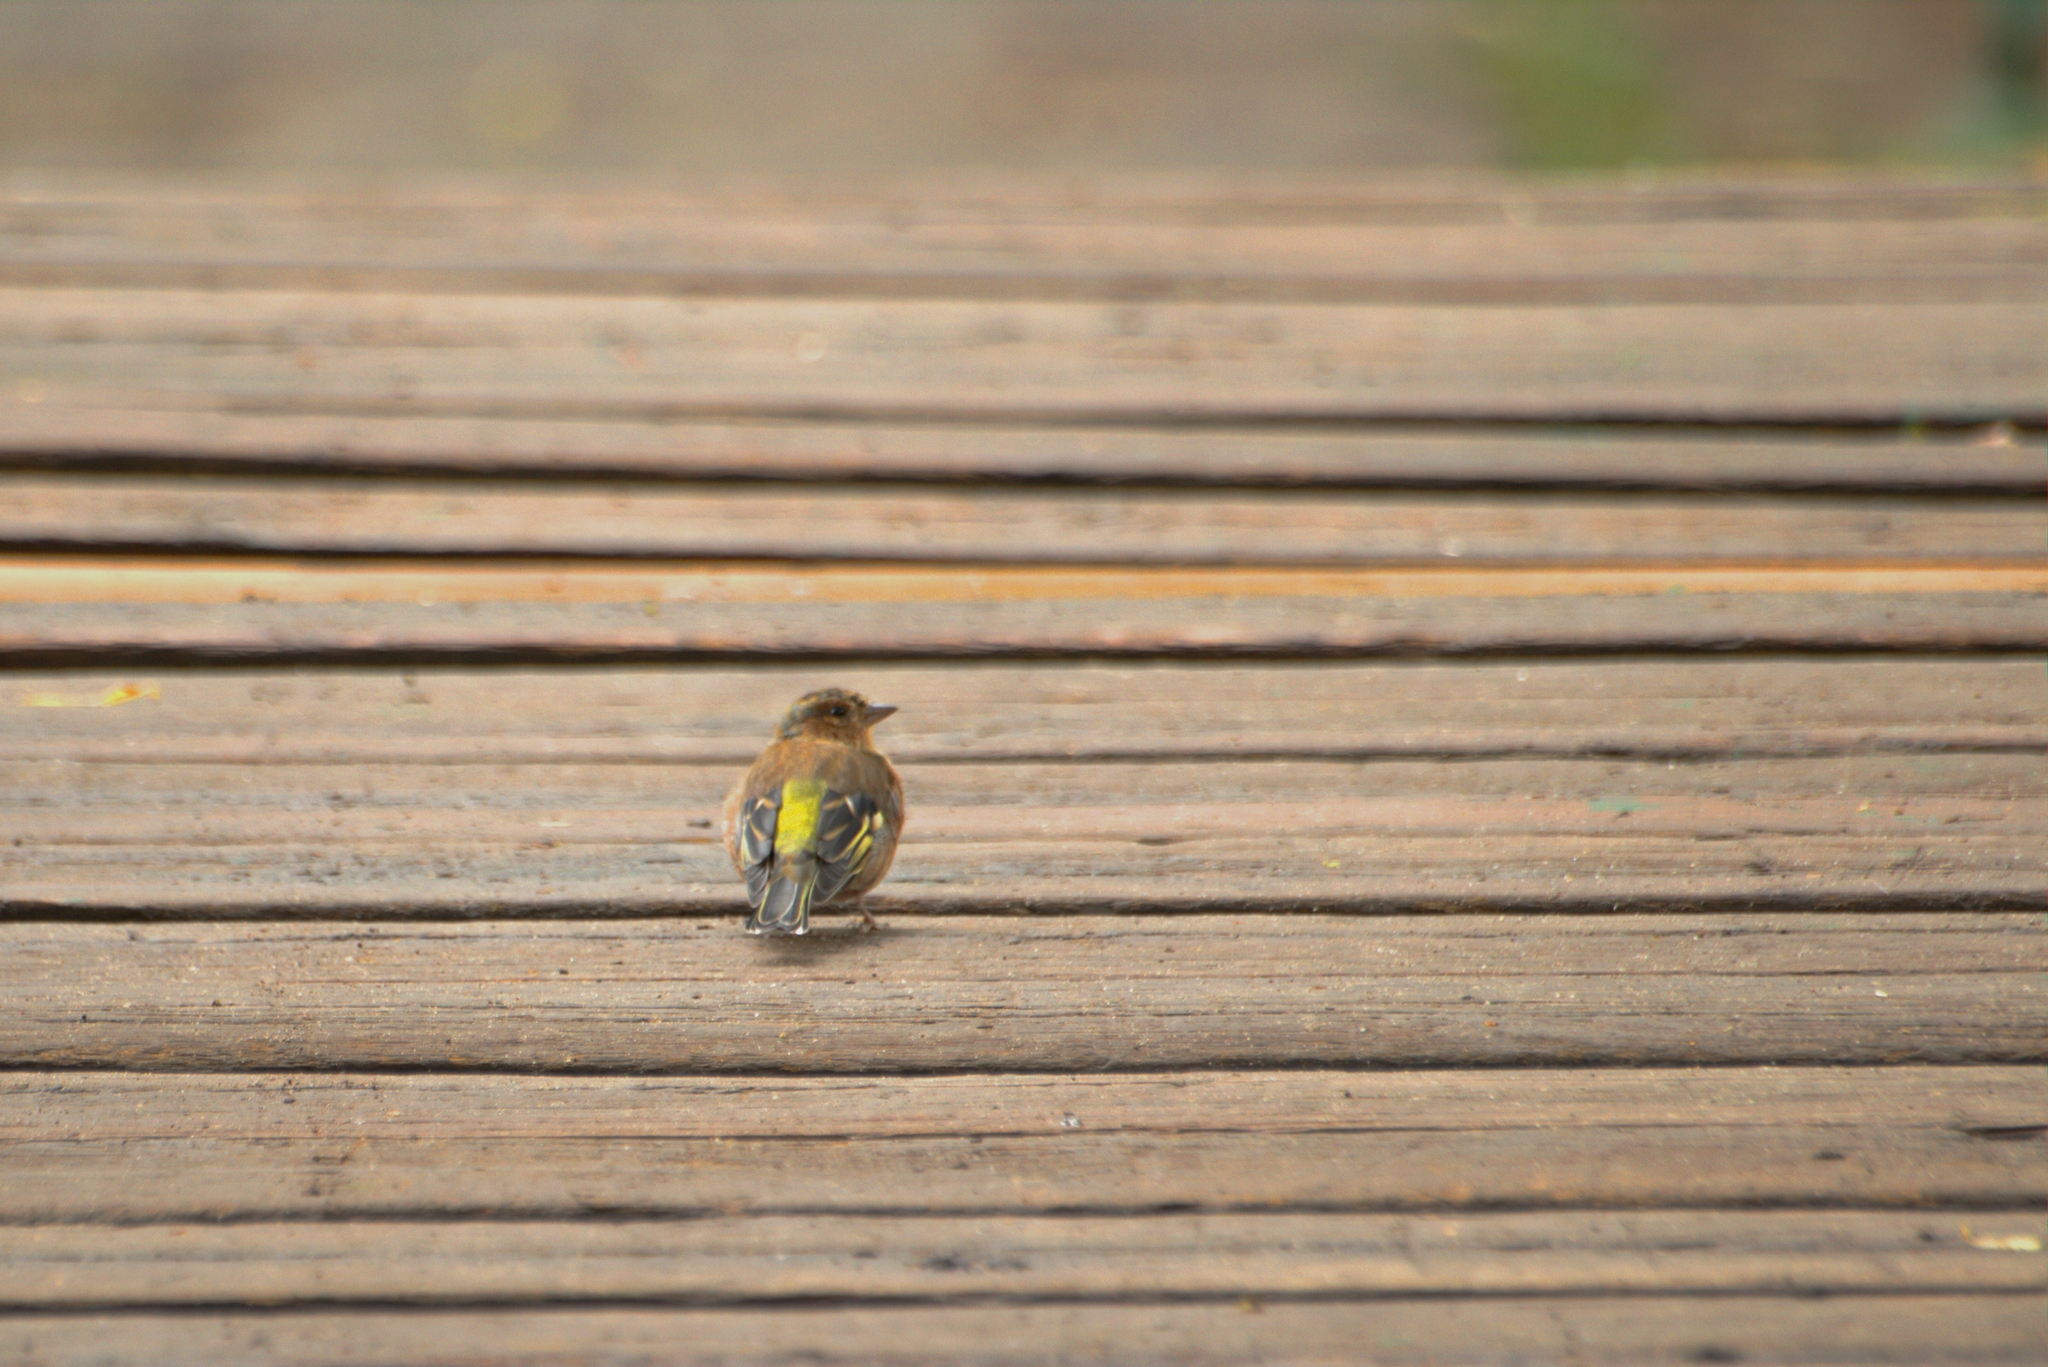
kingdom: Plantae
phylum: Tracheophyta
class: Liliopsida
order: Poales
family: Poaceae
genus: Chloris
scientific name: Chloris chloris
